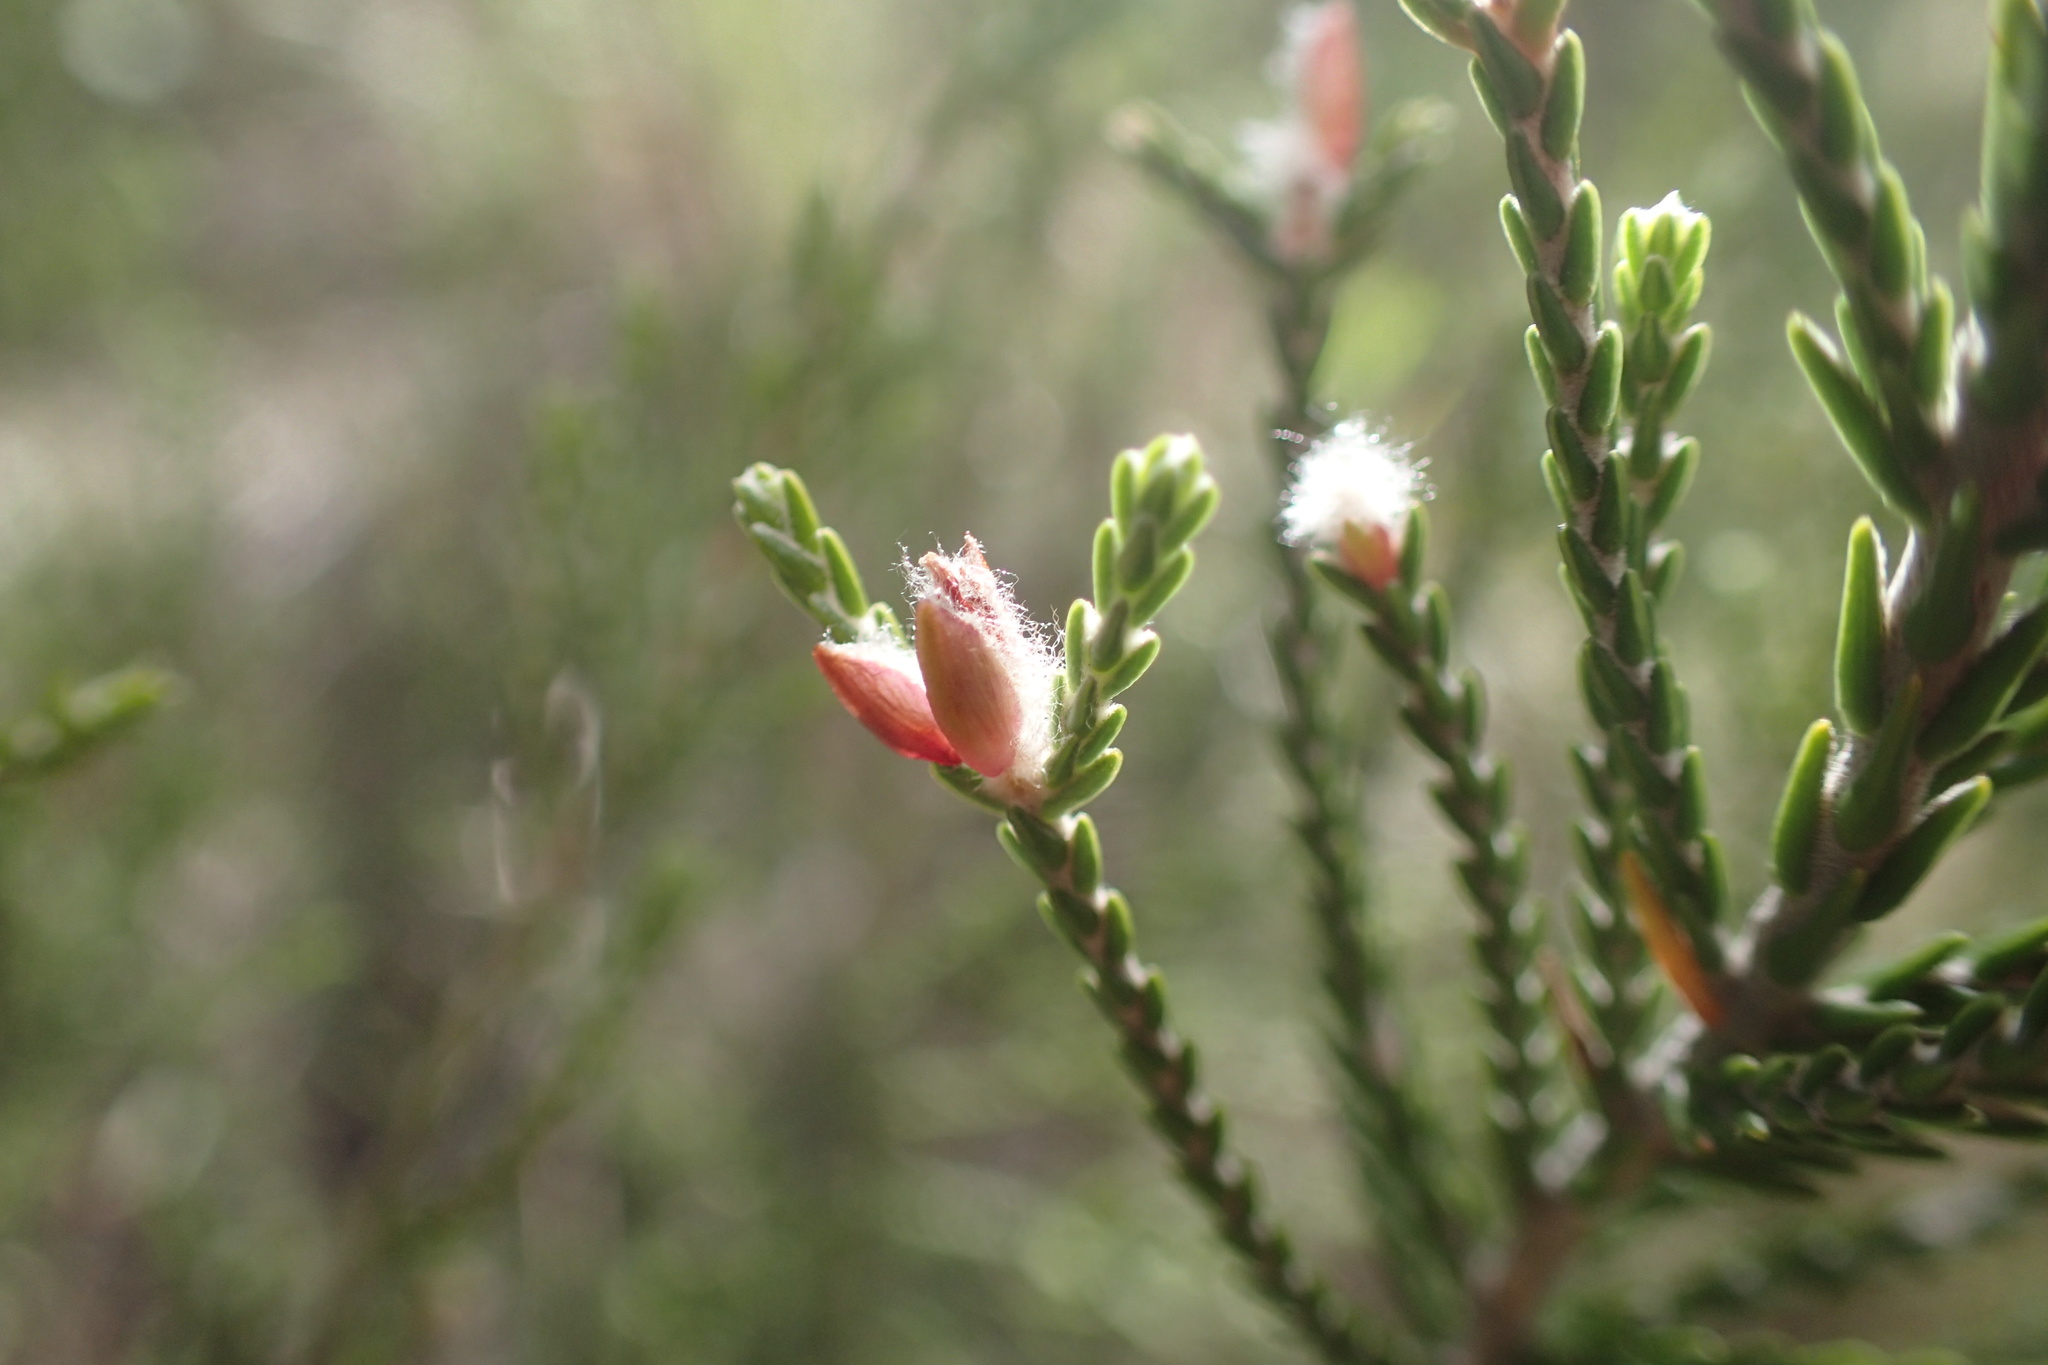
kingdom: Plantae
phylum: Tracheophyta
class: Magnoliopsida
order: Malvales
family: Thymelaeaceae
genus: Passerina
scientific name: Passerina montana
